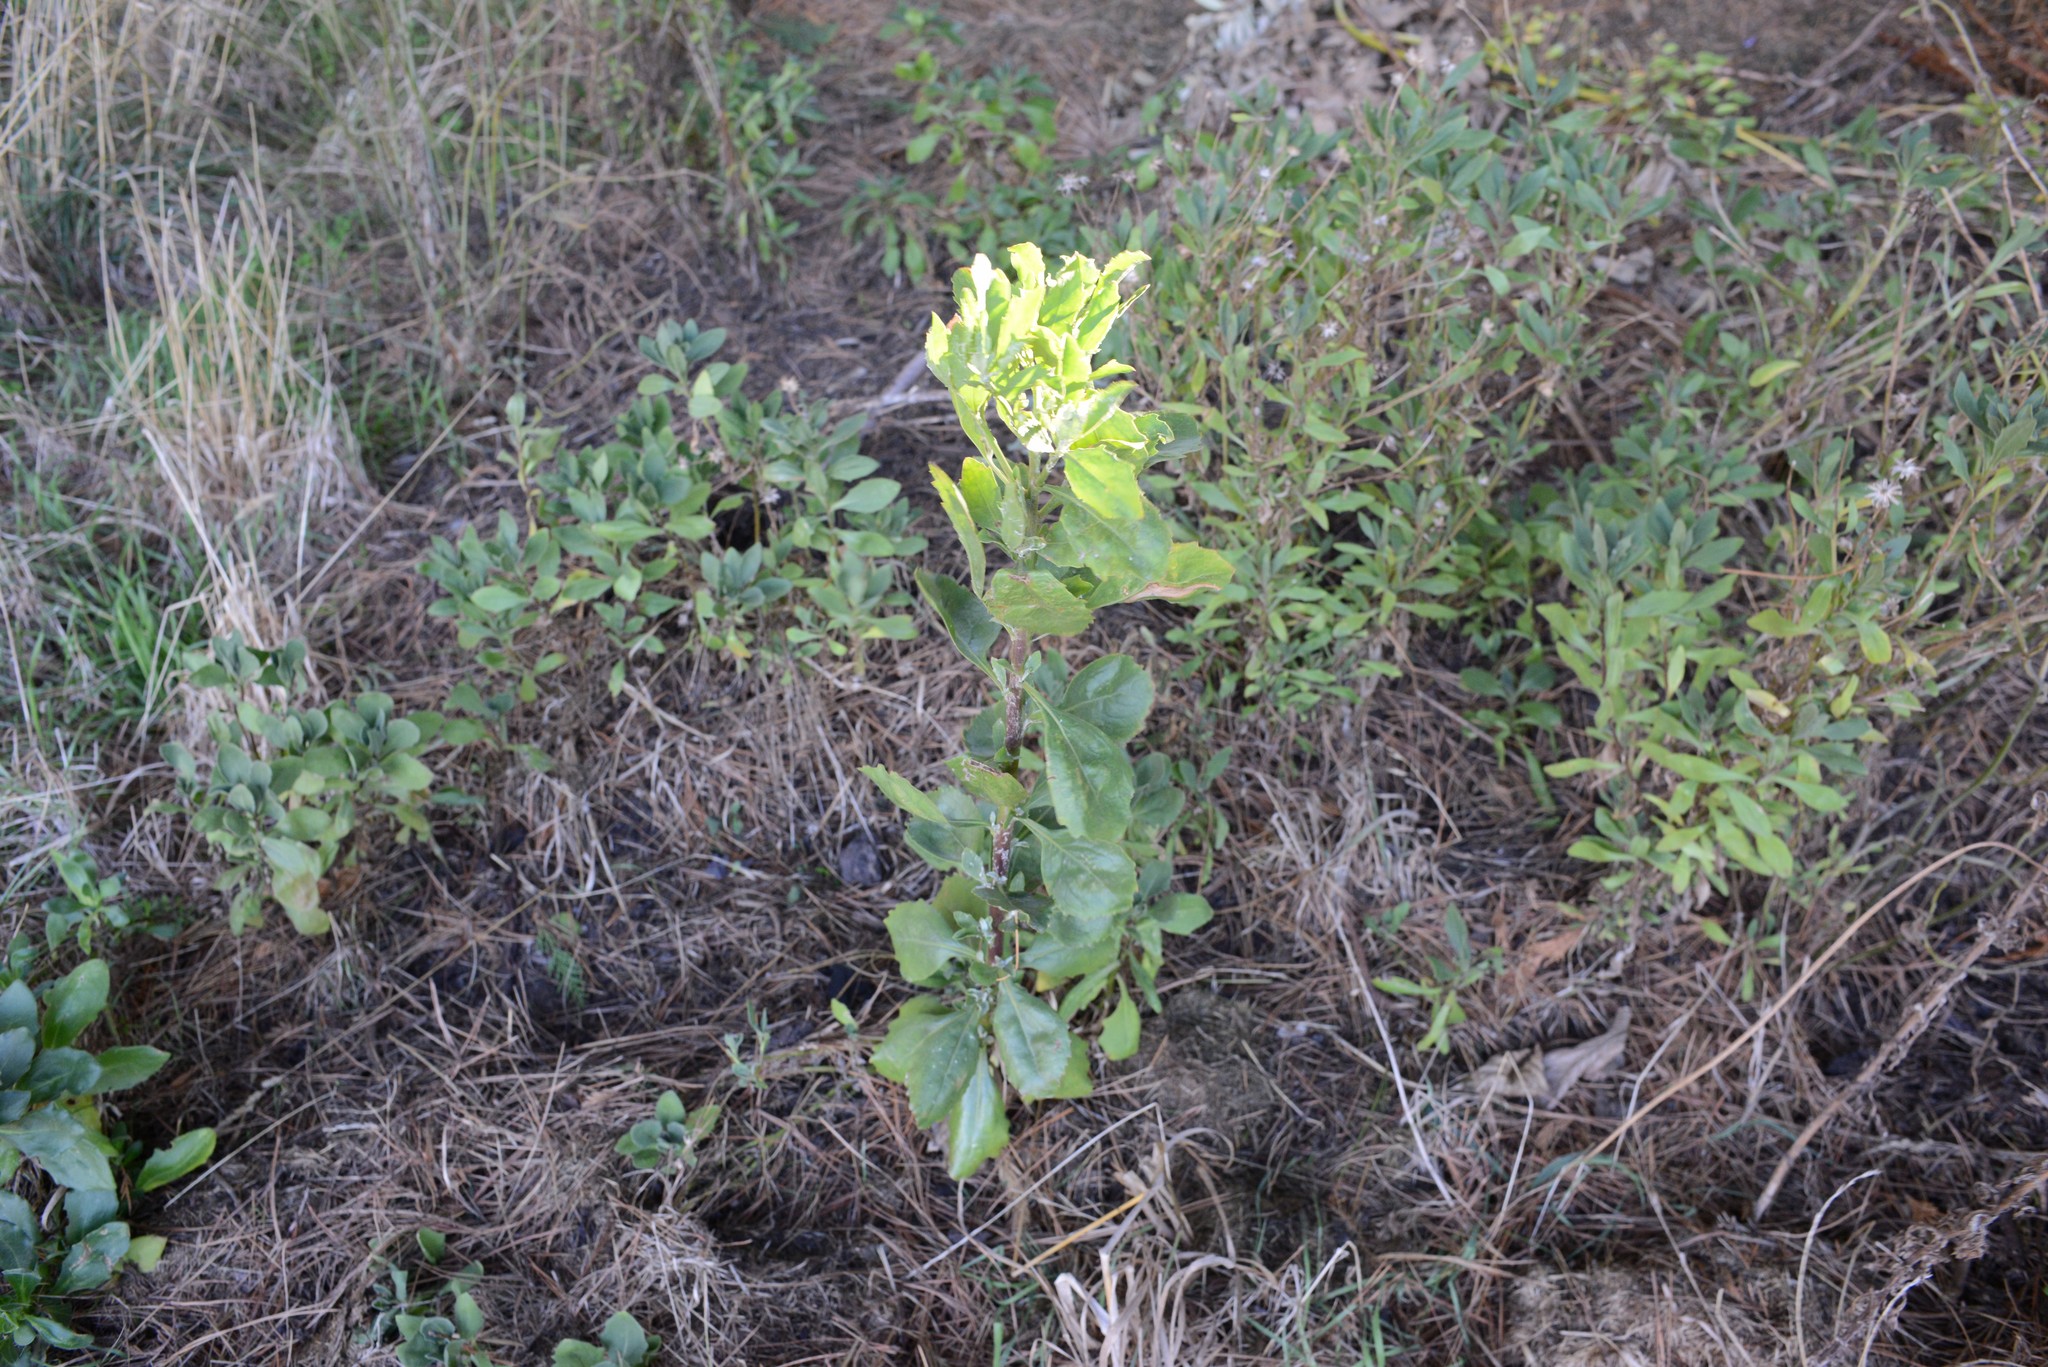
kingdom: Plantae
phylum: Tracheophyta
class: Magnoliopsida
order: Asterales
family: Asteraceae
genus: Osteospermum
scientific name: Osteospermum moniliferum
